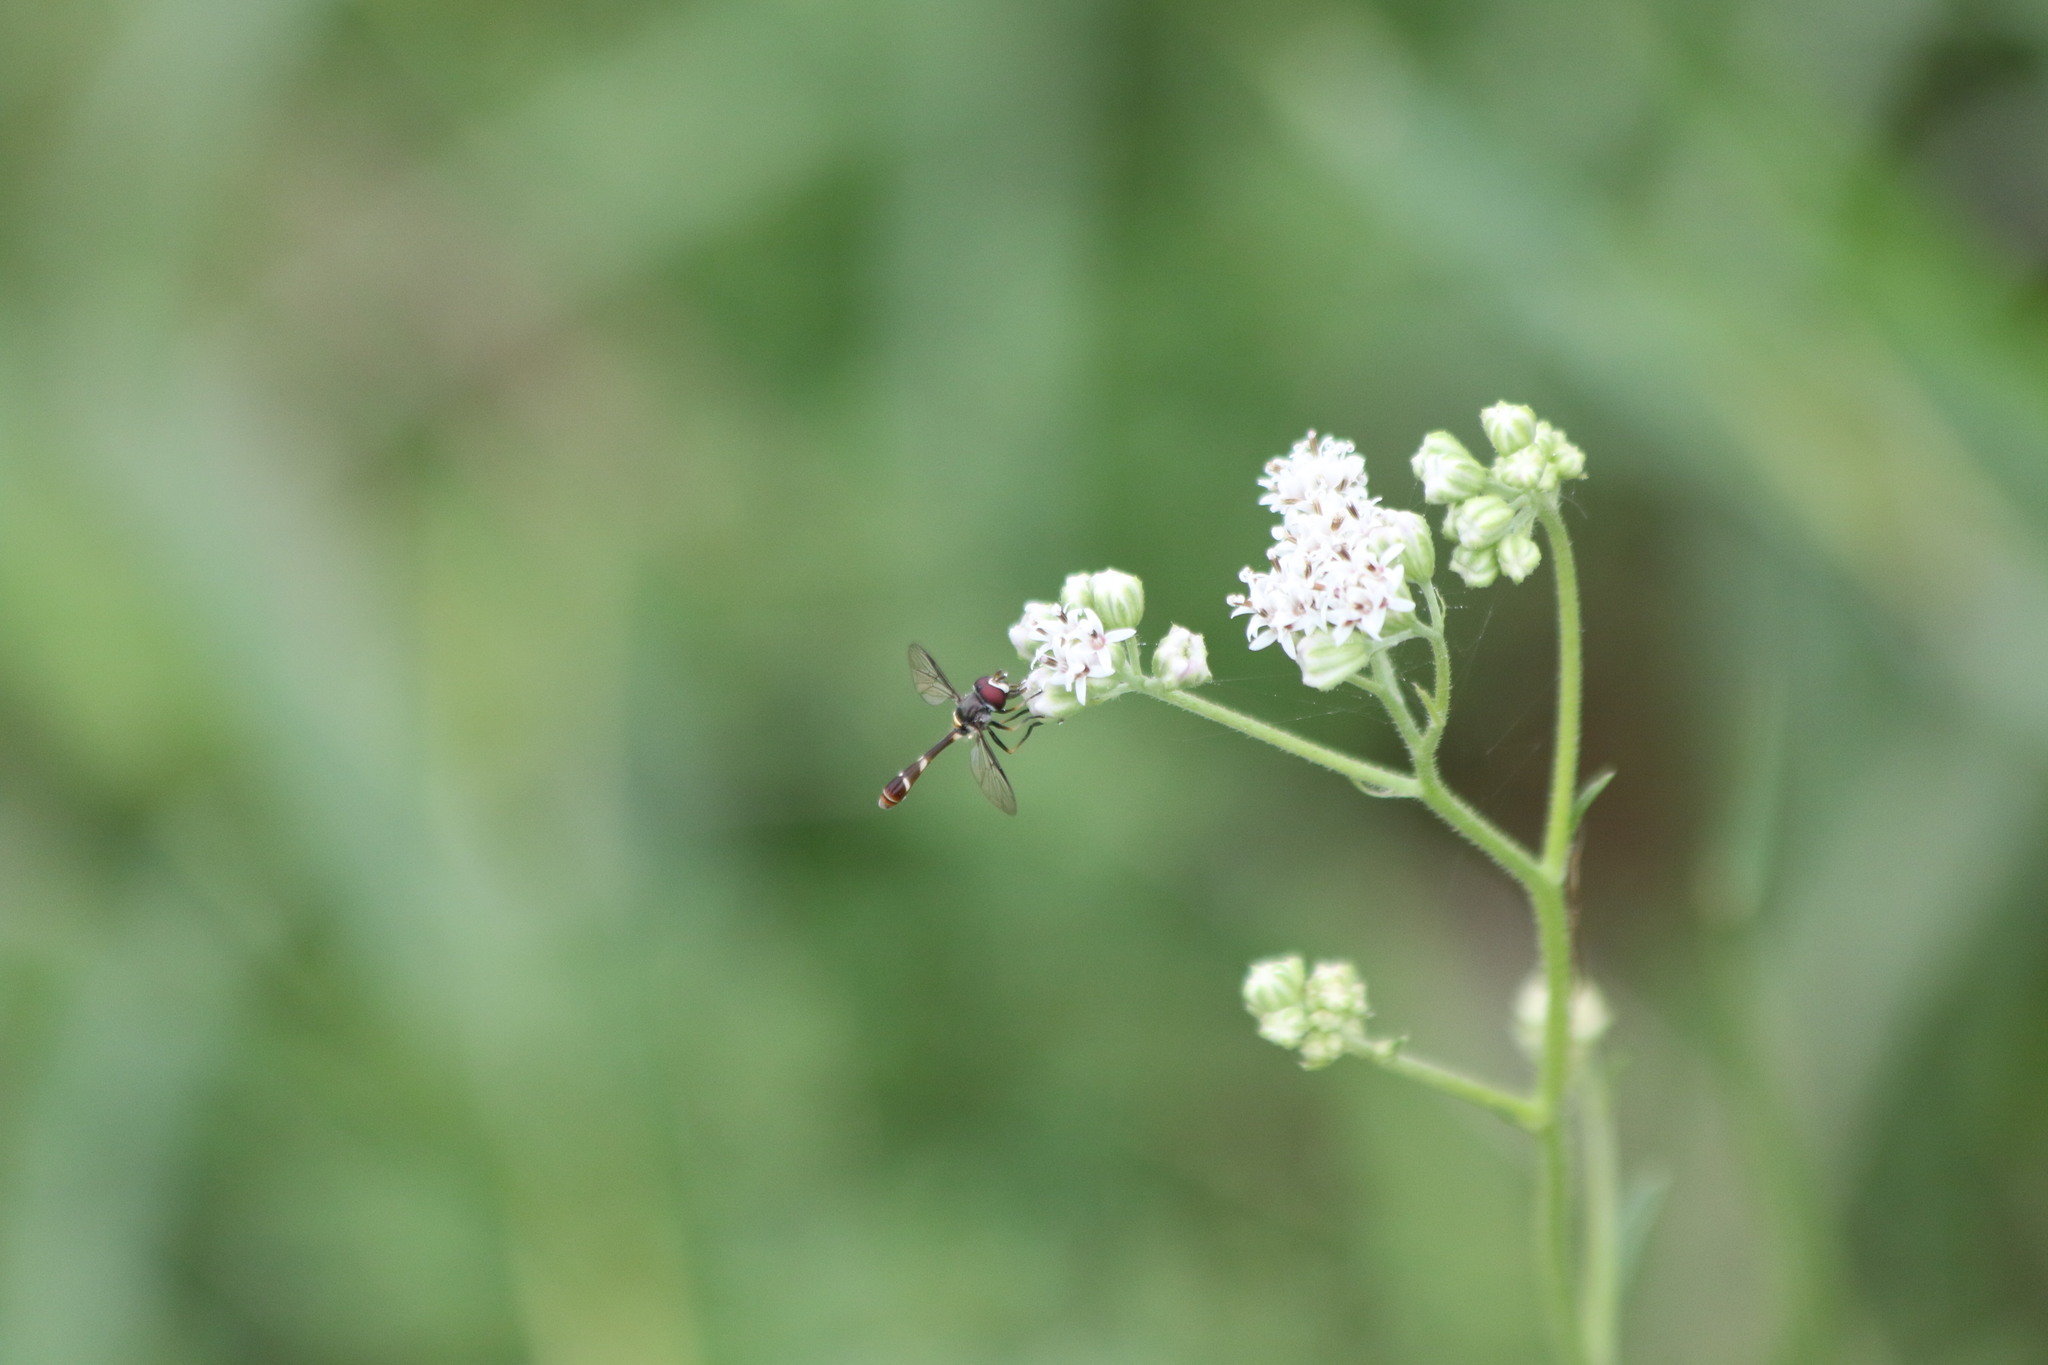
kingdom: Animalia
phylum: Arthropoda
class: Insecta
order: Diptera
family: Syrphidae
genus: Dioprosopa
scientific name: Dioprosopa clavatus
